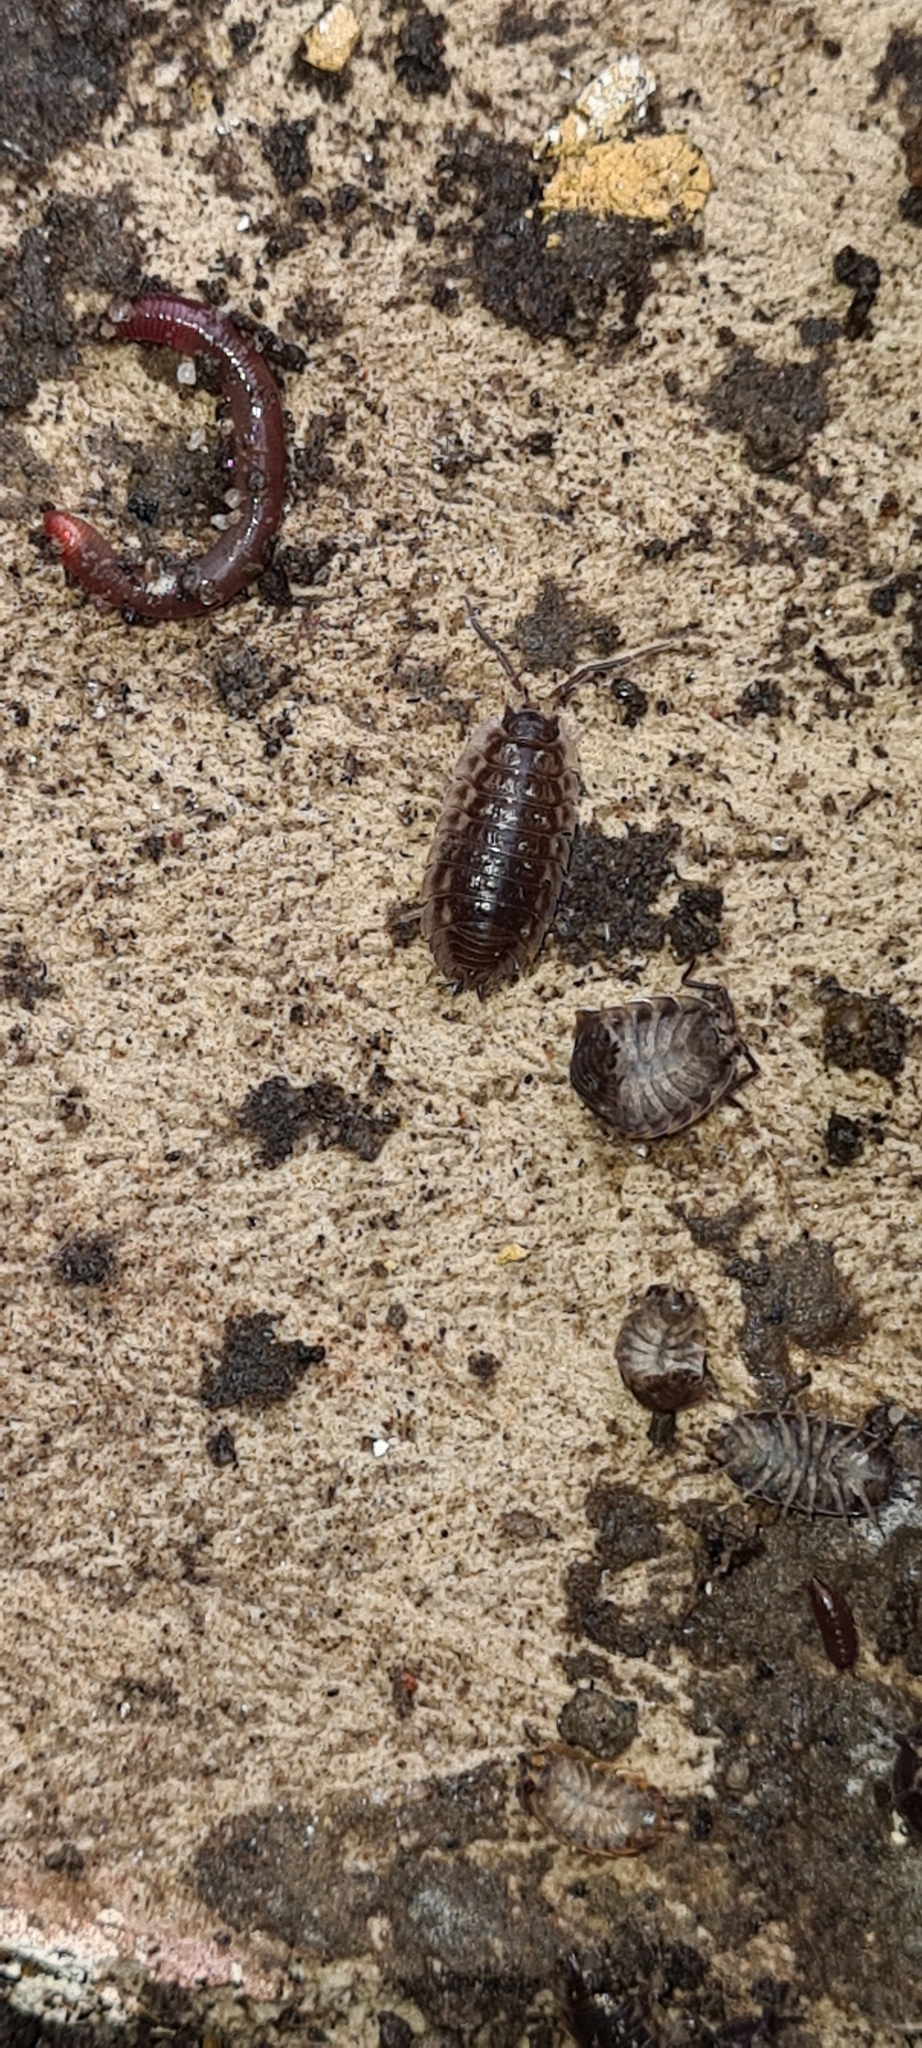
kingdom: Animalia
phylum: Arthropoda
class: Malacostraca
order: Isopoda
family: Oniscidae
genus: Oniscus
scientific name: Oniscus asellus
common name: Common shiny woodlouse
